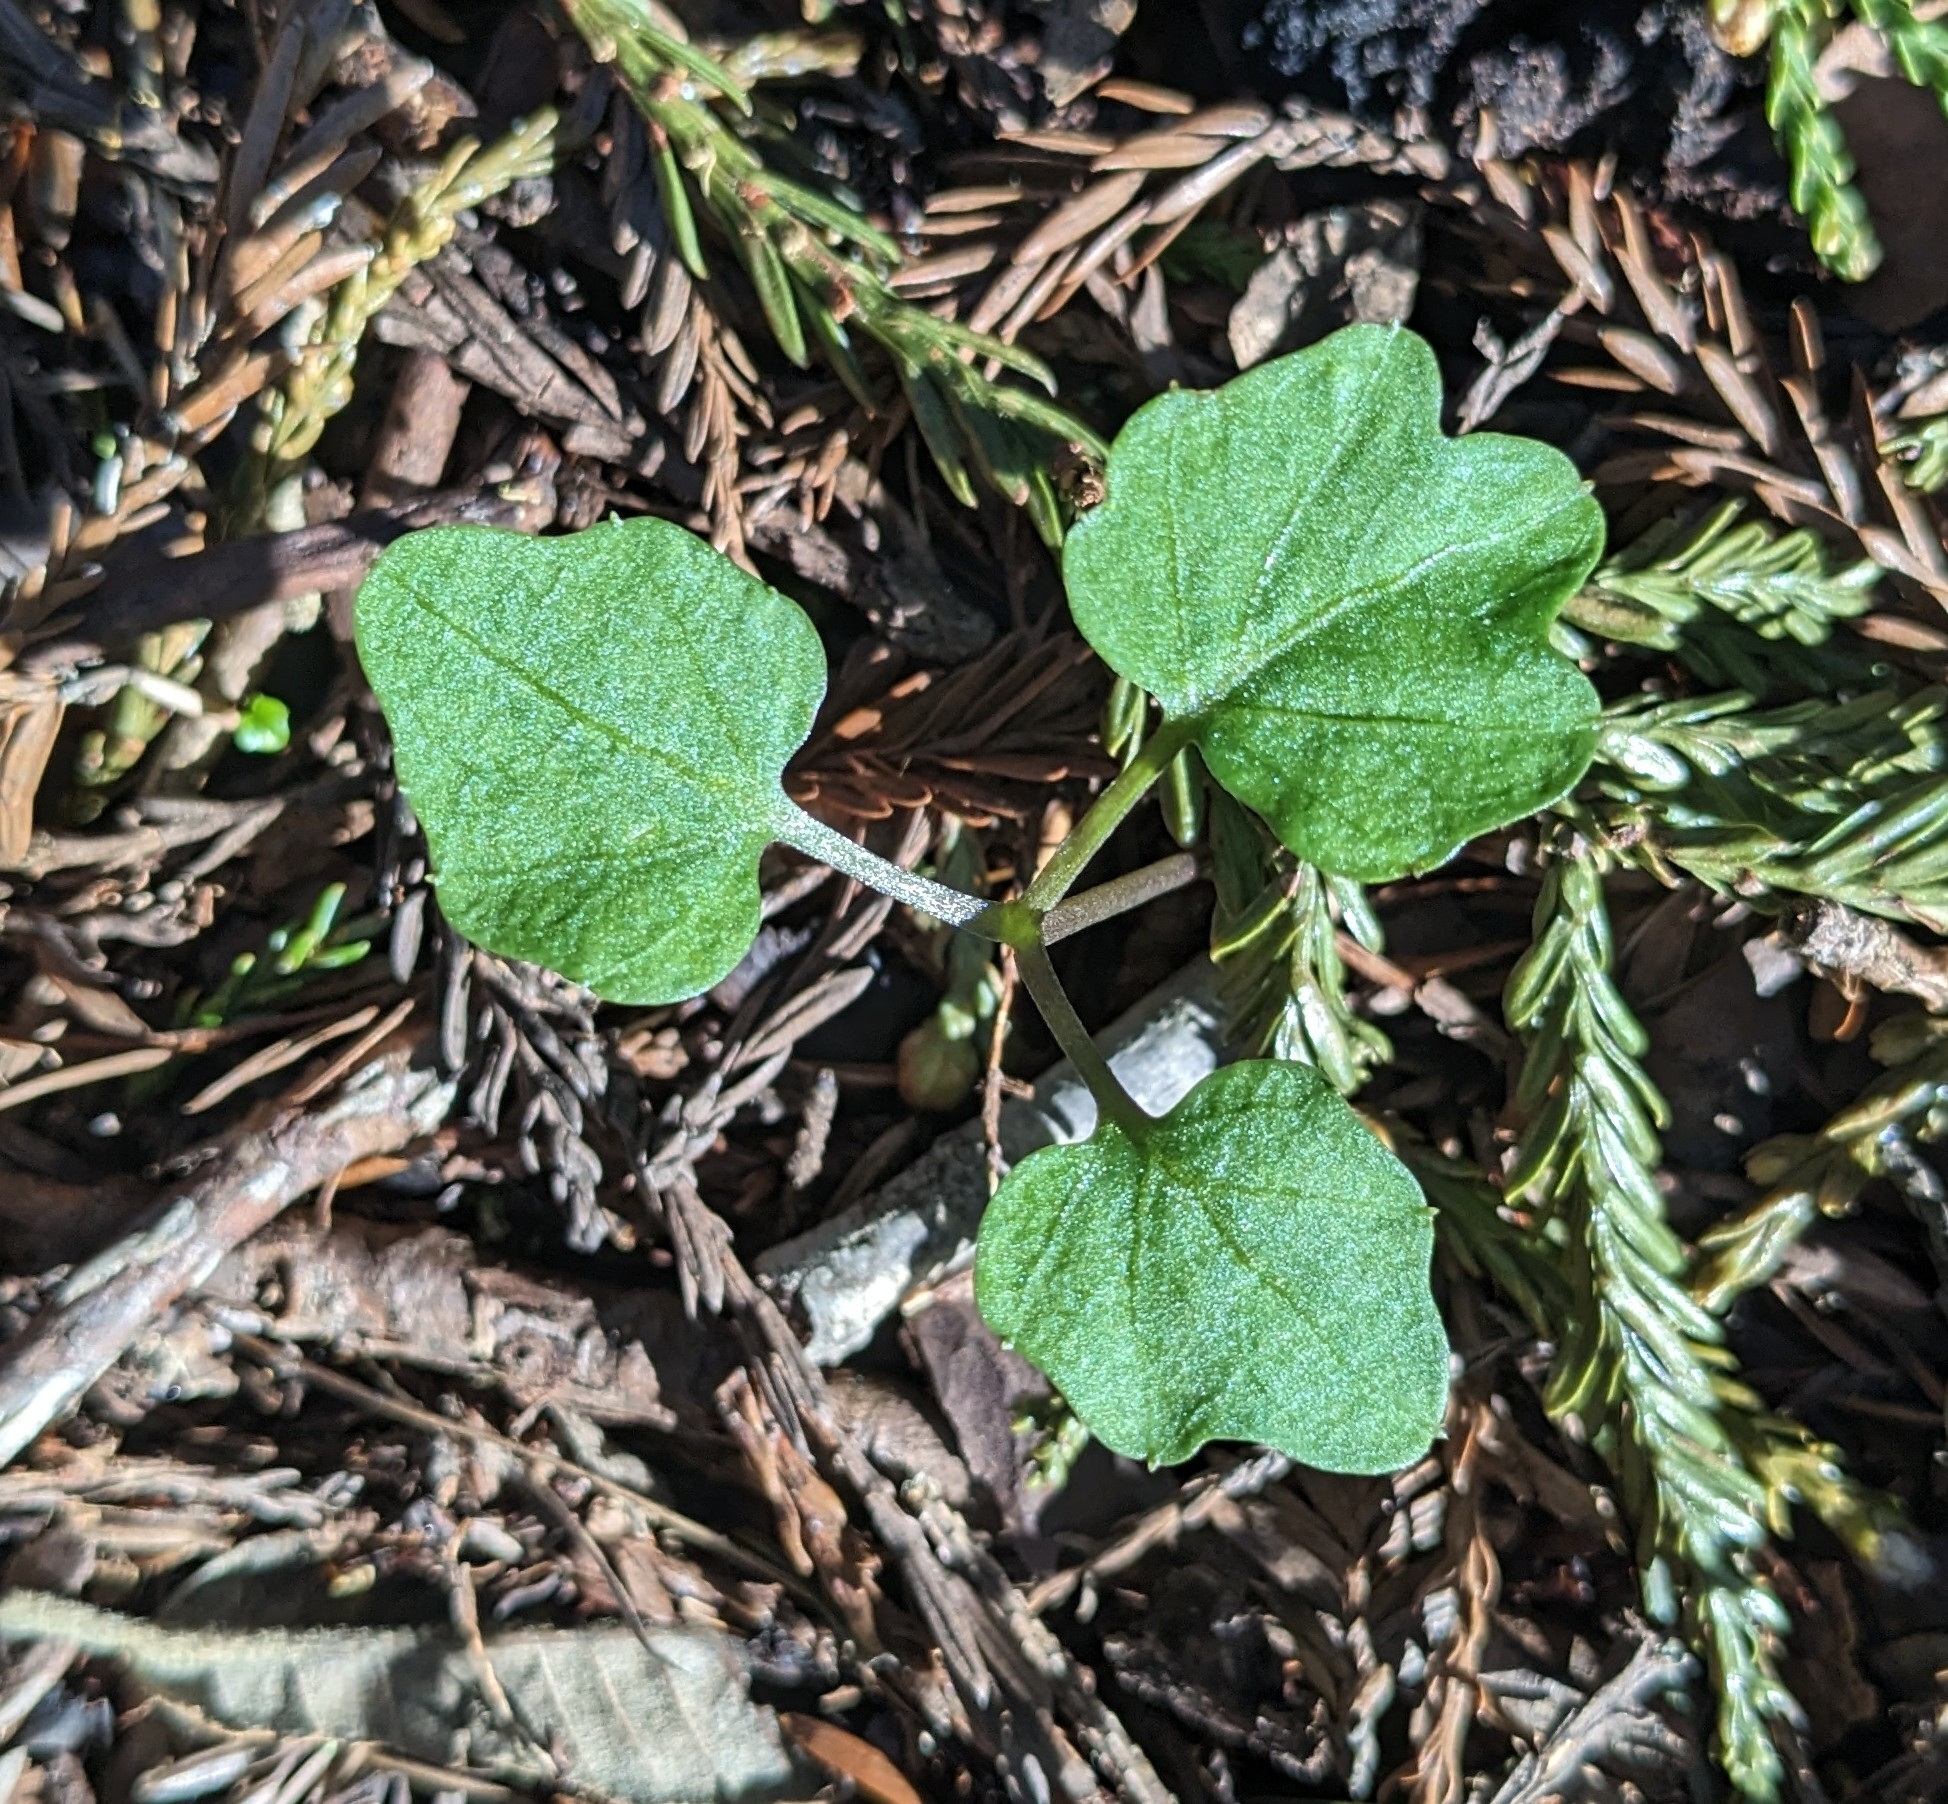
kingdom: Plantae
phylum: Tracheophyta
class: Magnoliopsida
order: Brassicales
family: Brassicaceae
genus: Cardamine
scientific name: Cardamine californica
